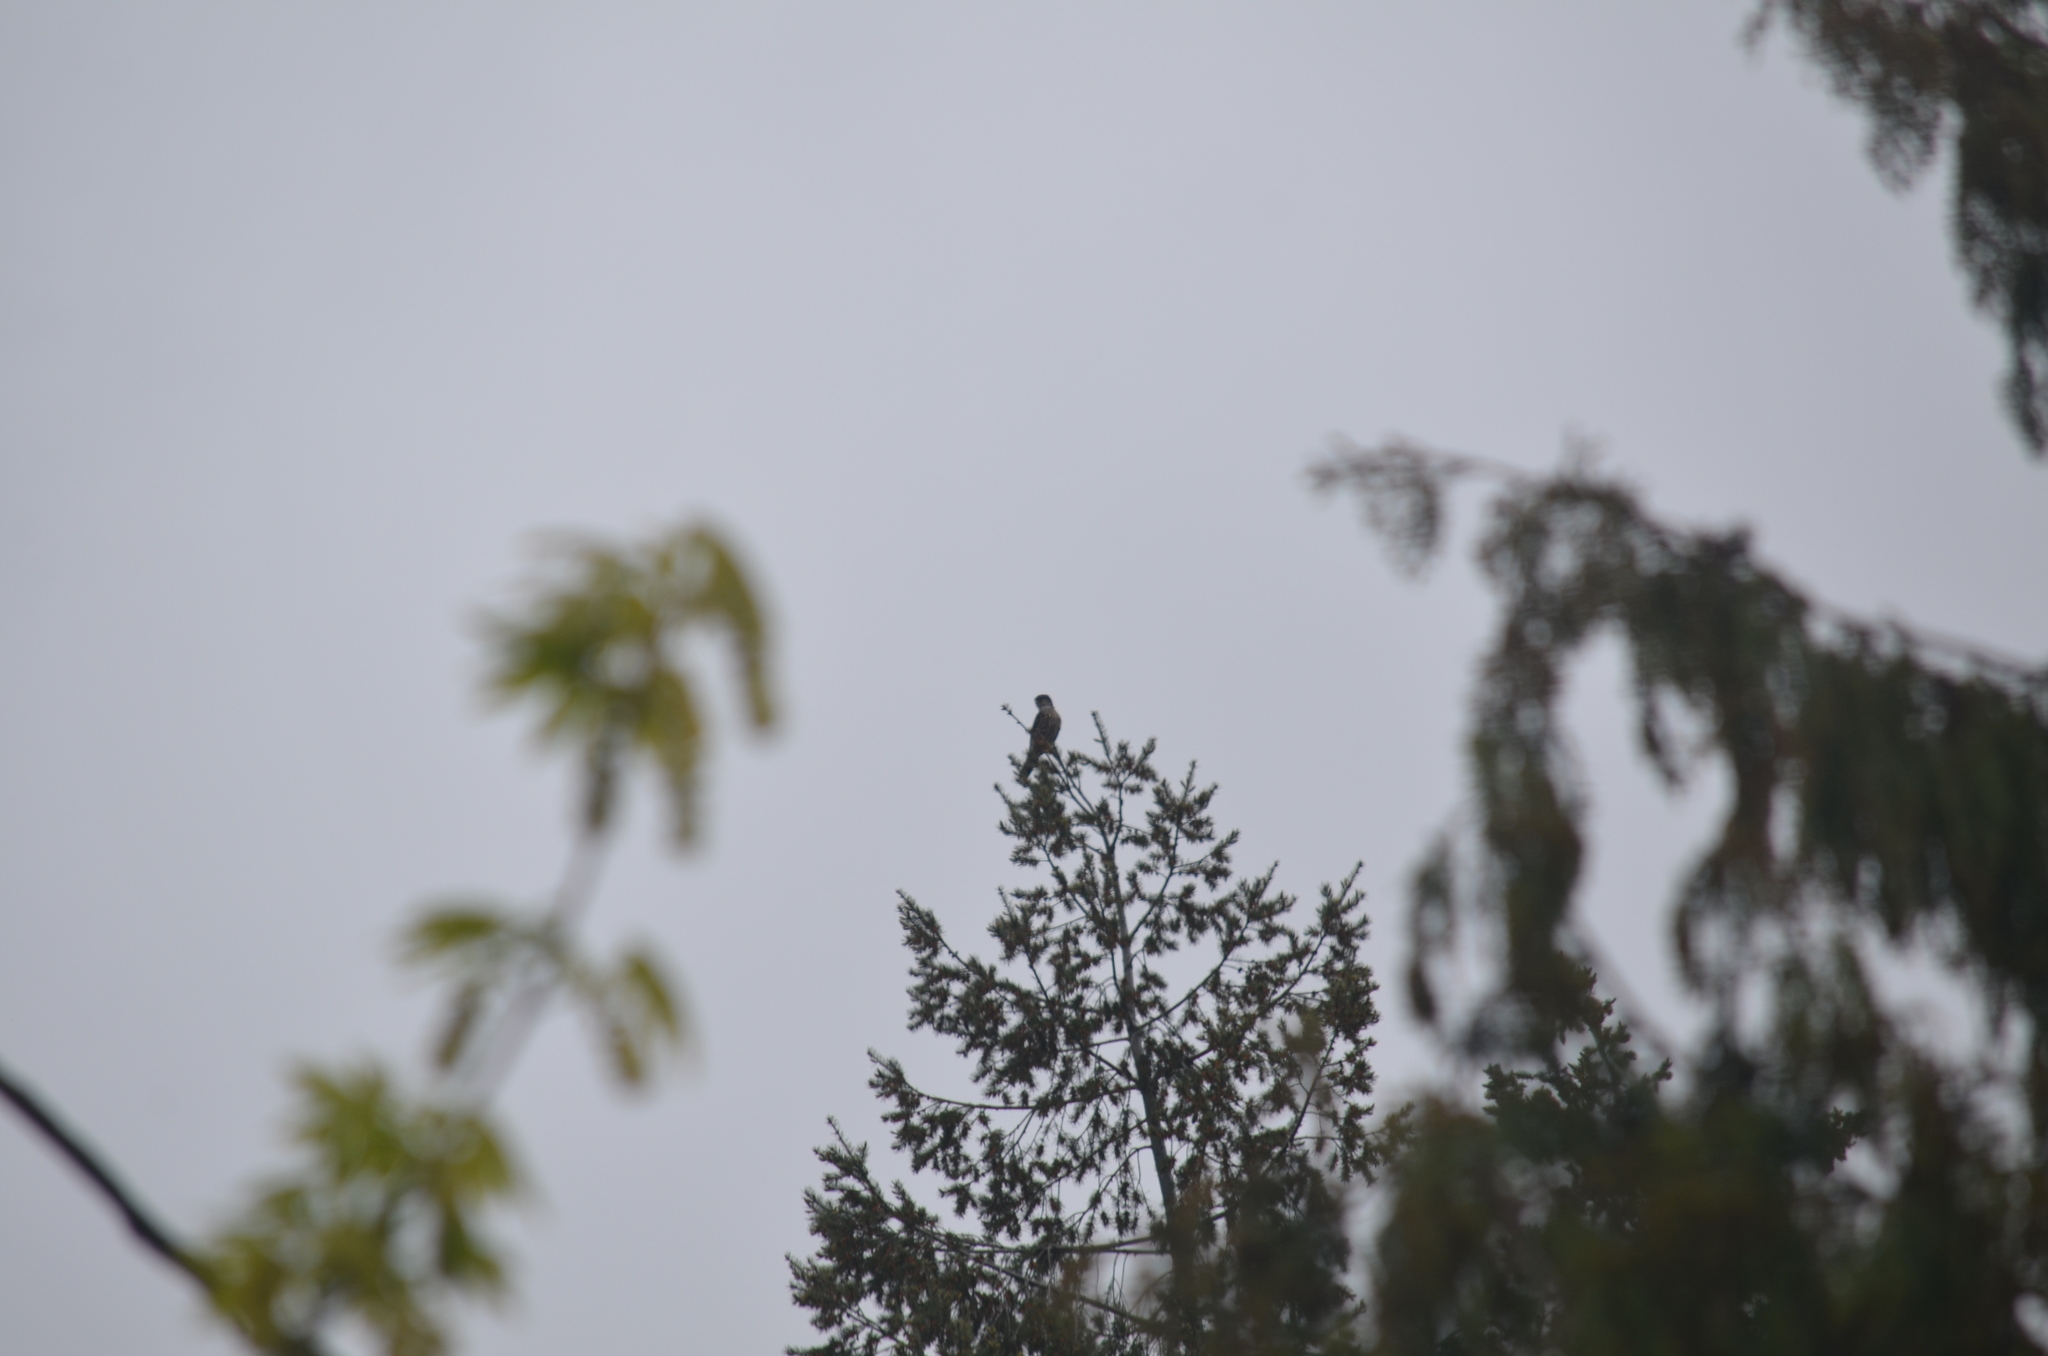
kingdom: Animalia
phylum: Chordata
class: Aves
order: Falconiformes
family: Falconidae
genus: Falco
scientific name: Falco columbarius
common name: Merlin
